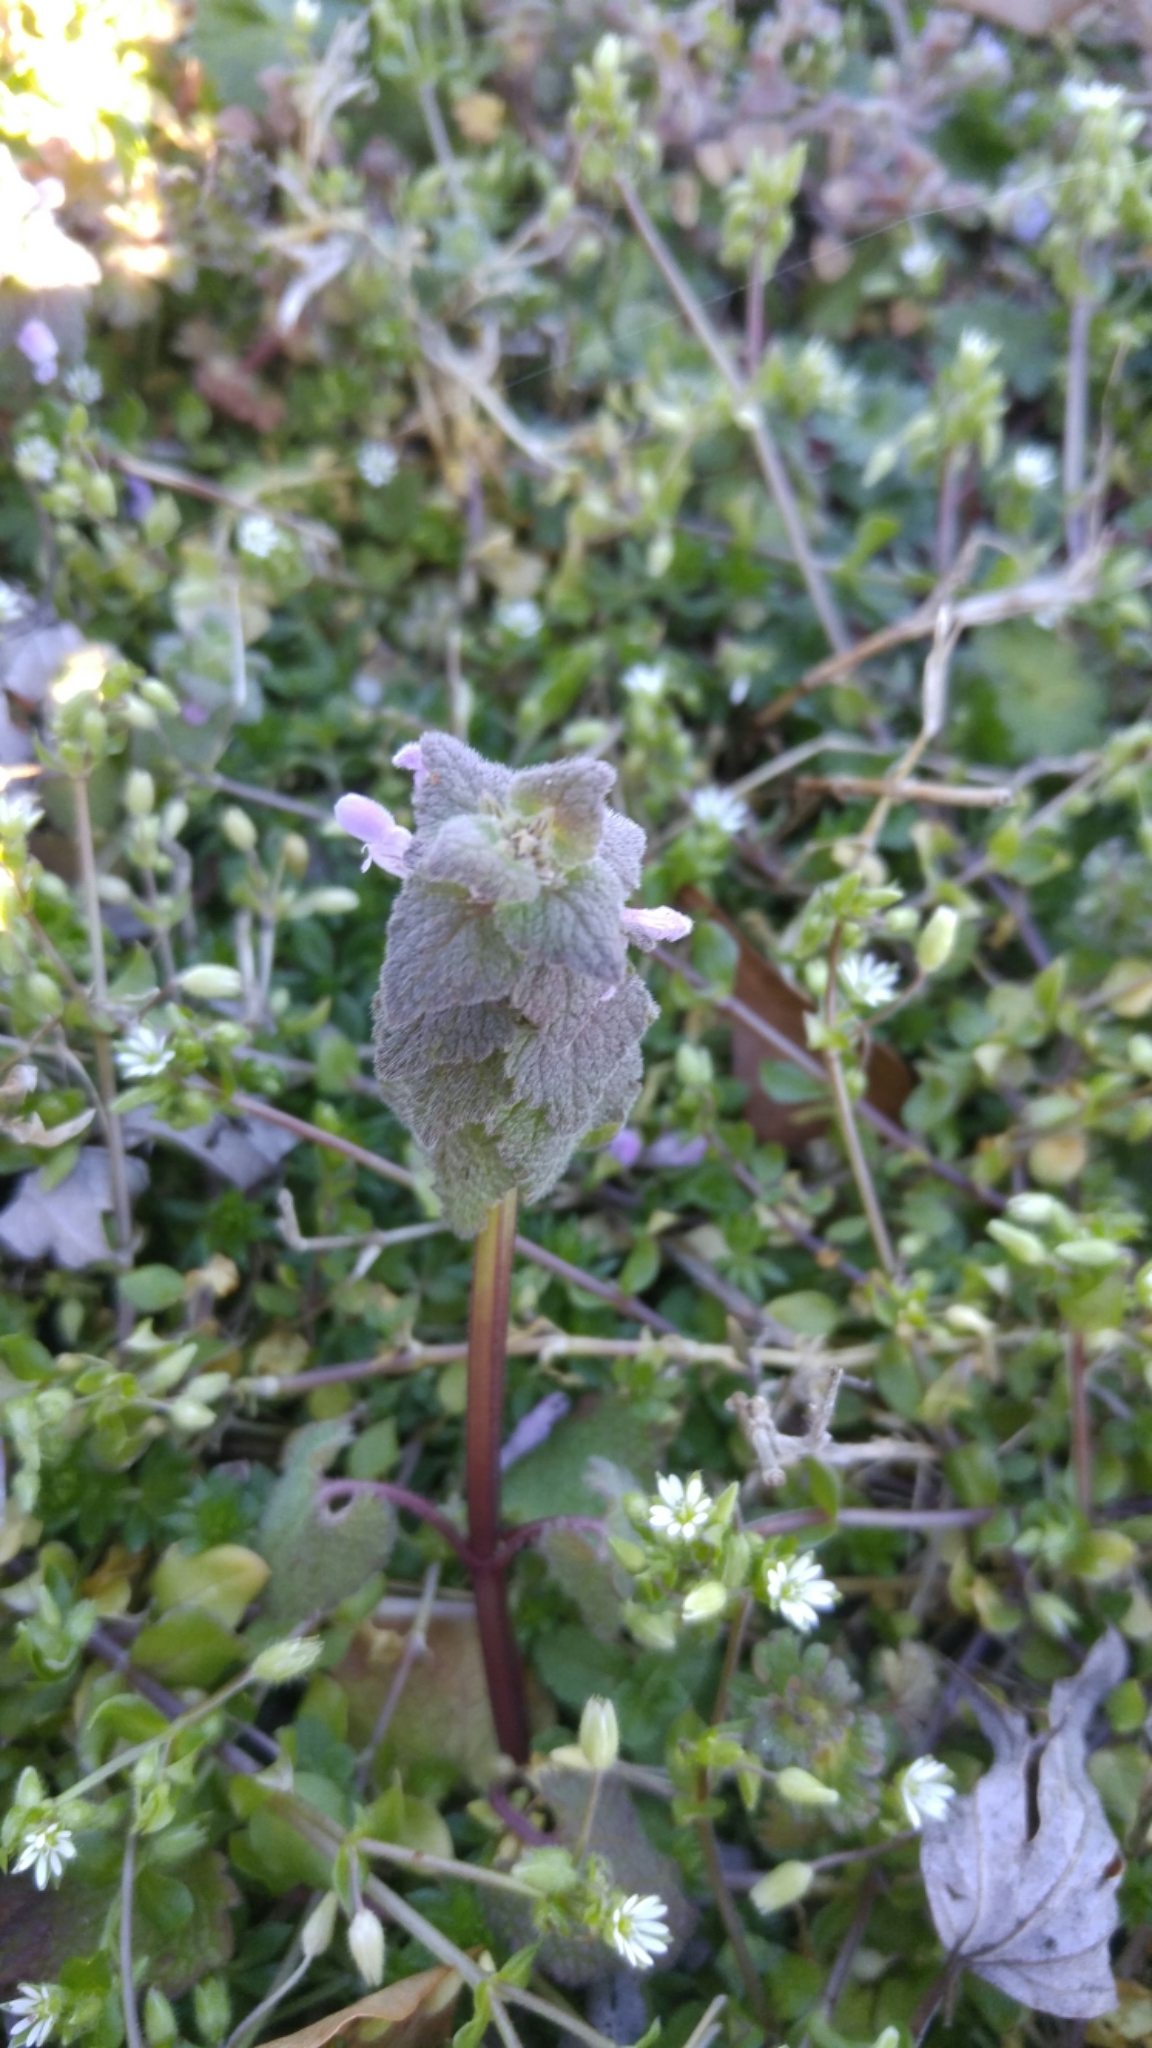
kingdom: Plantae
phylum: Tracheophyta
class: Magnoliopsida
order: Lamiales
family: Lamiaceae
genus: Lamium
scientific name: Lamium purpureum
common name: Red dead-nettle
